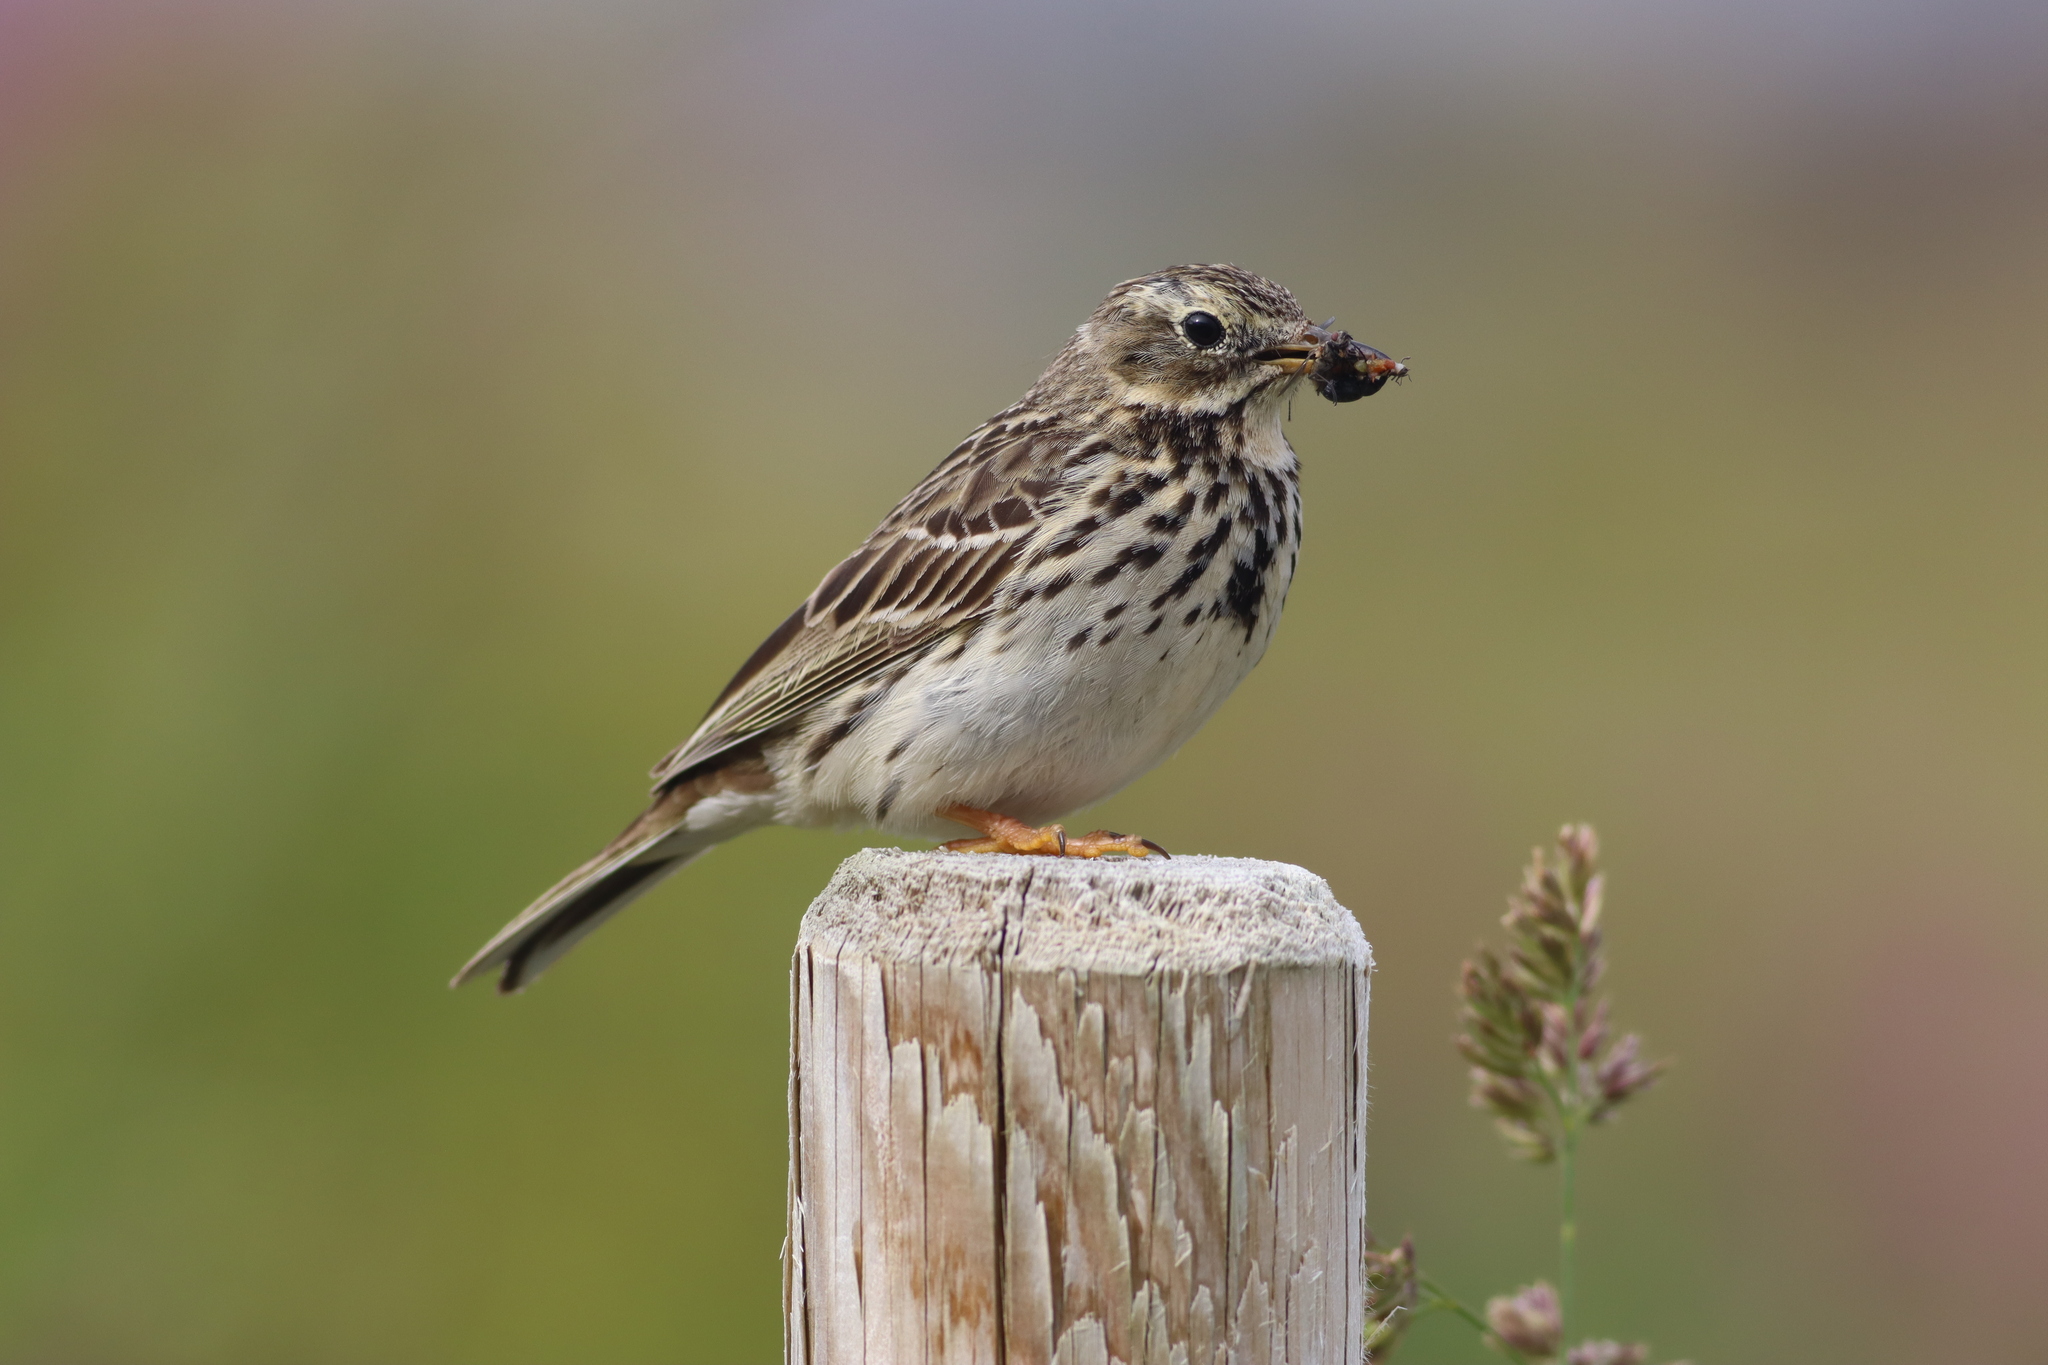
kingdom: Animalia
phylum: Chordata
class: Aves
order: Passeriformes
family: Motacillidae
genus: Anthus
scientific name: Anthus pratensis
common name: Meadow pipit
